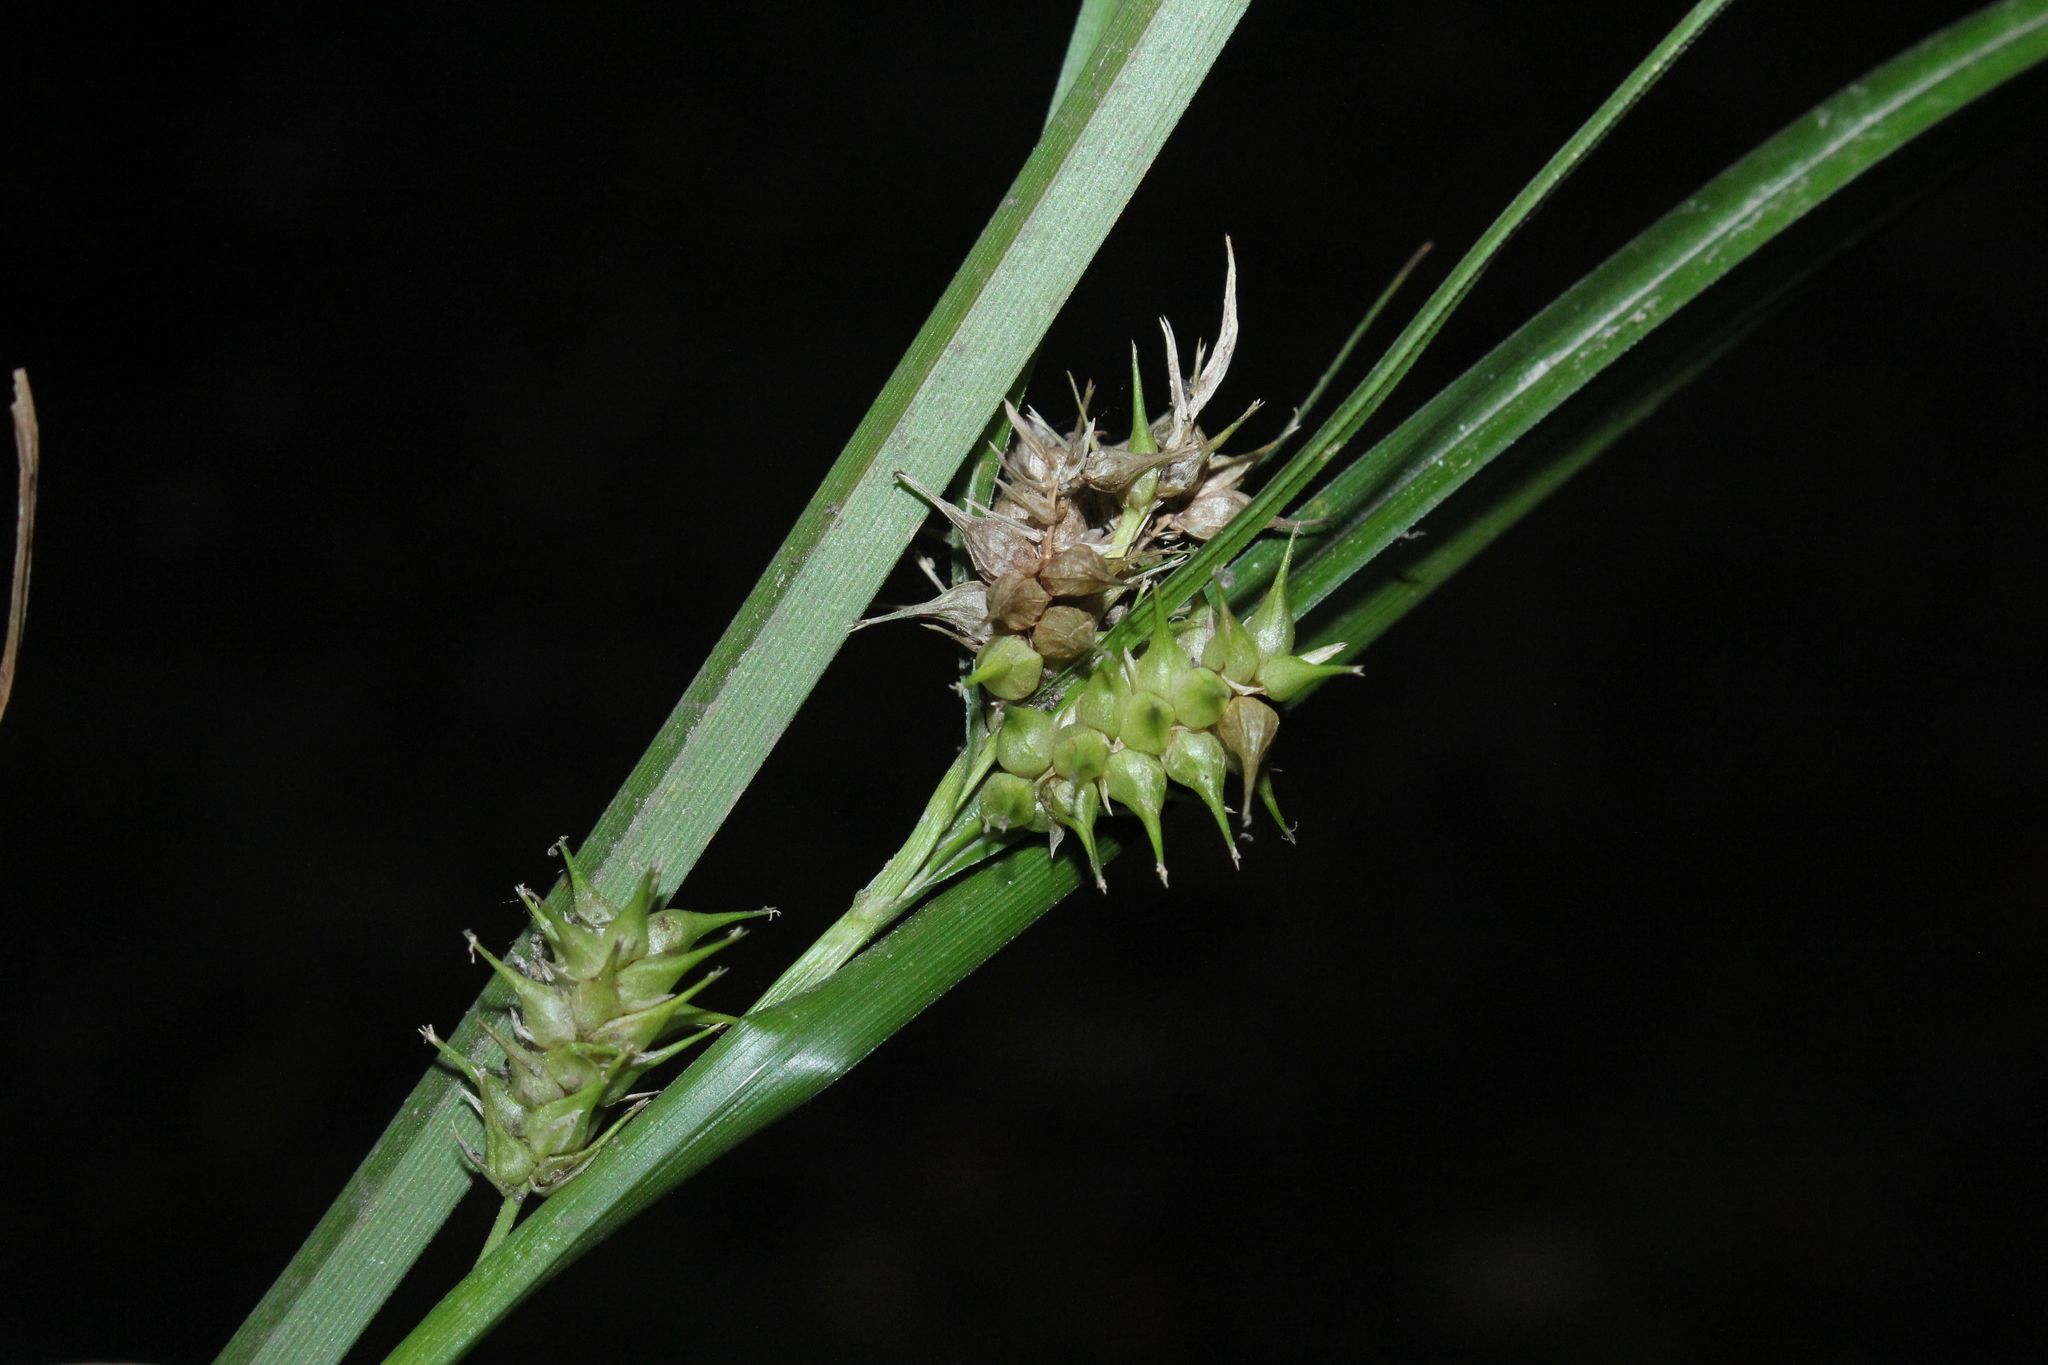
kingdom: Plantae
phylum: Tracheophyta
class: Liliopsida
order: Poales
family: Cyperaceae
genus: Carex
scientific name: Carex retrorsa
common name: Knot-sheath sedge
